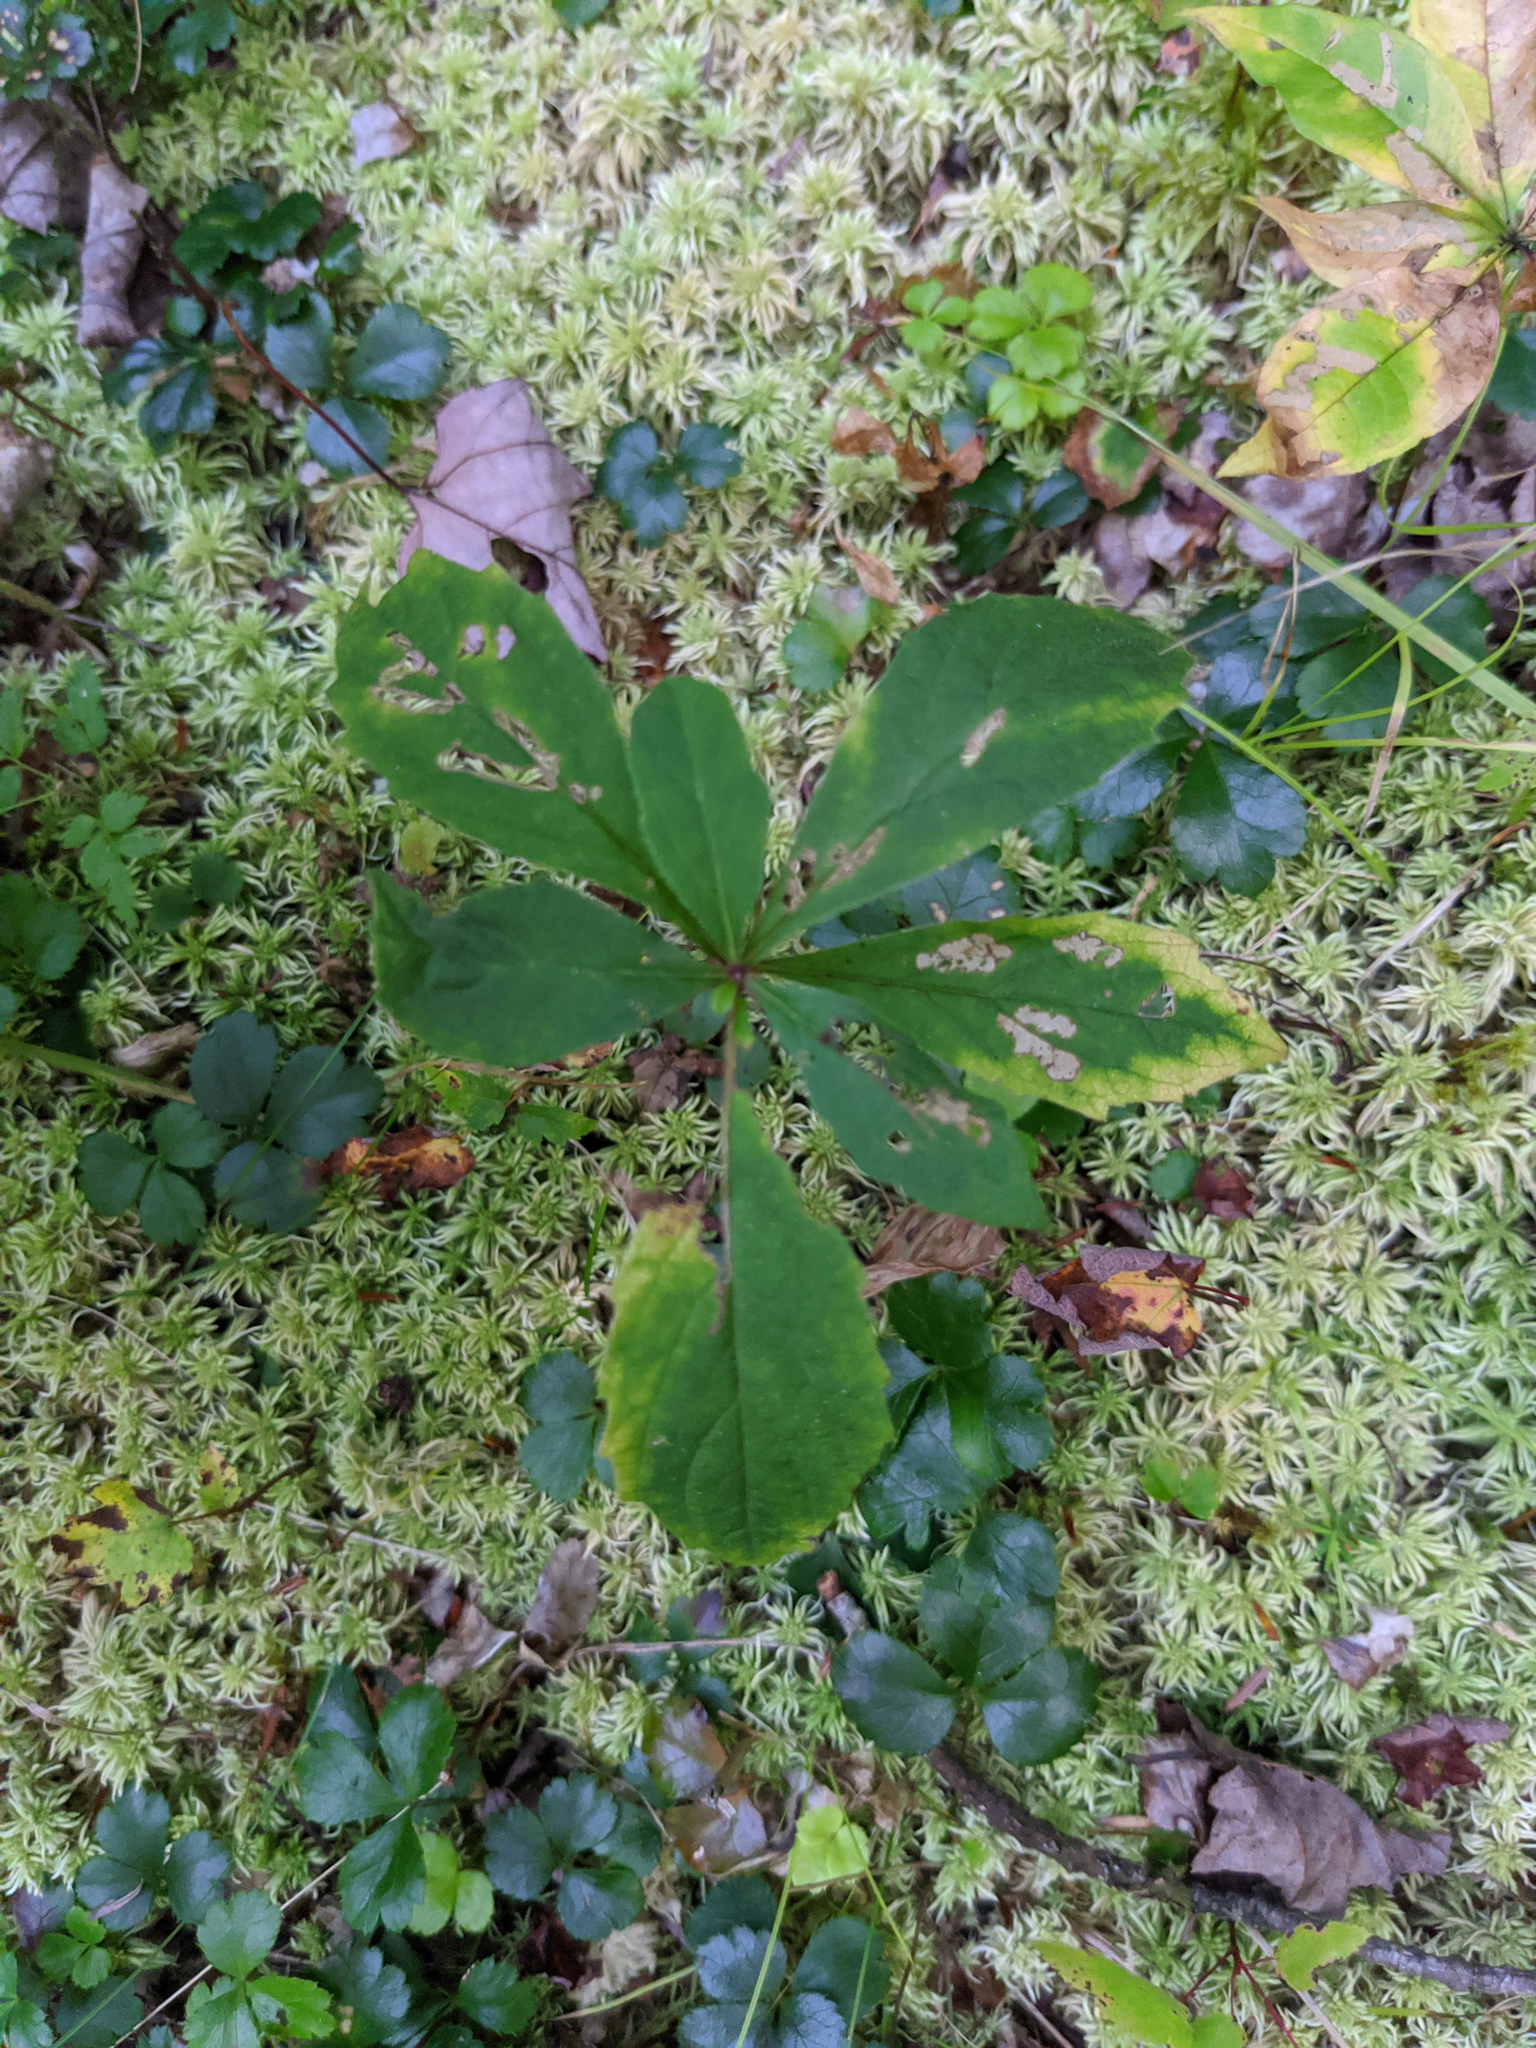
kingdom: Plantae
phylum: Tracheophyta
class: Magnoliopsida
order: Asterales
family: Asteraceae
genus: Oclemena
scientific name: Oclemena acuminata
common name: Mountain aster
